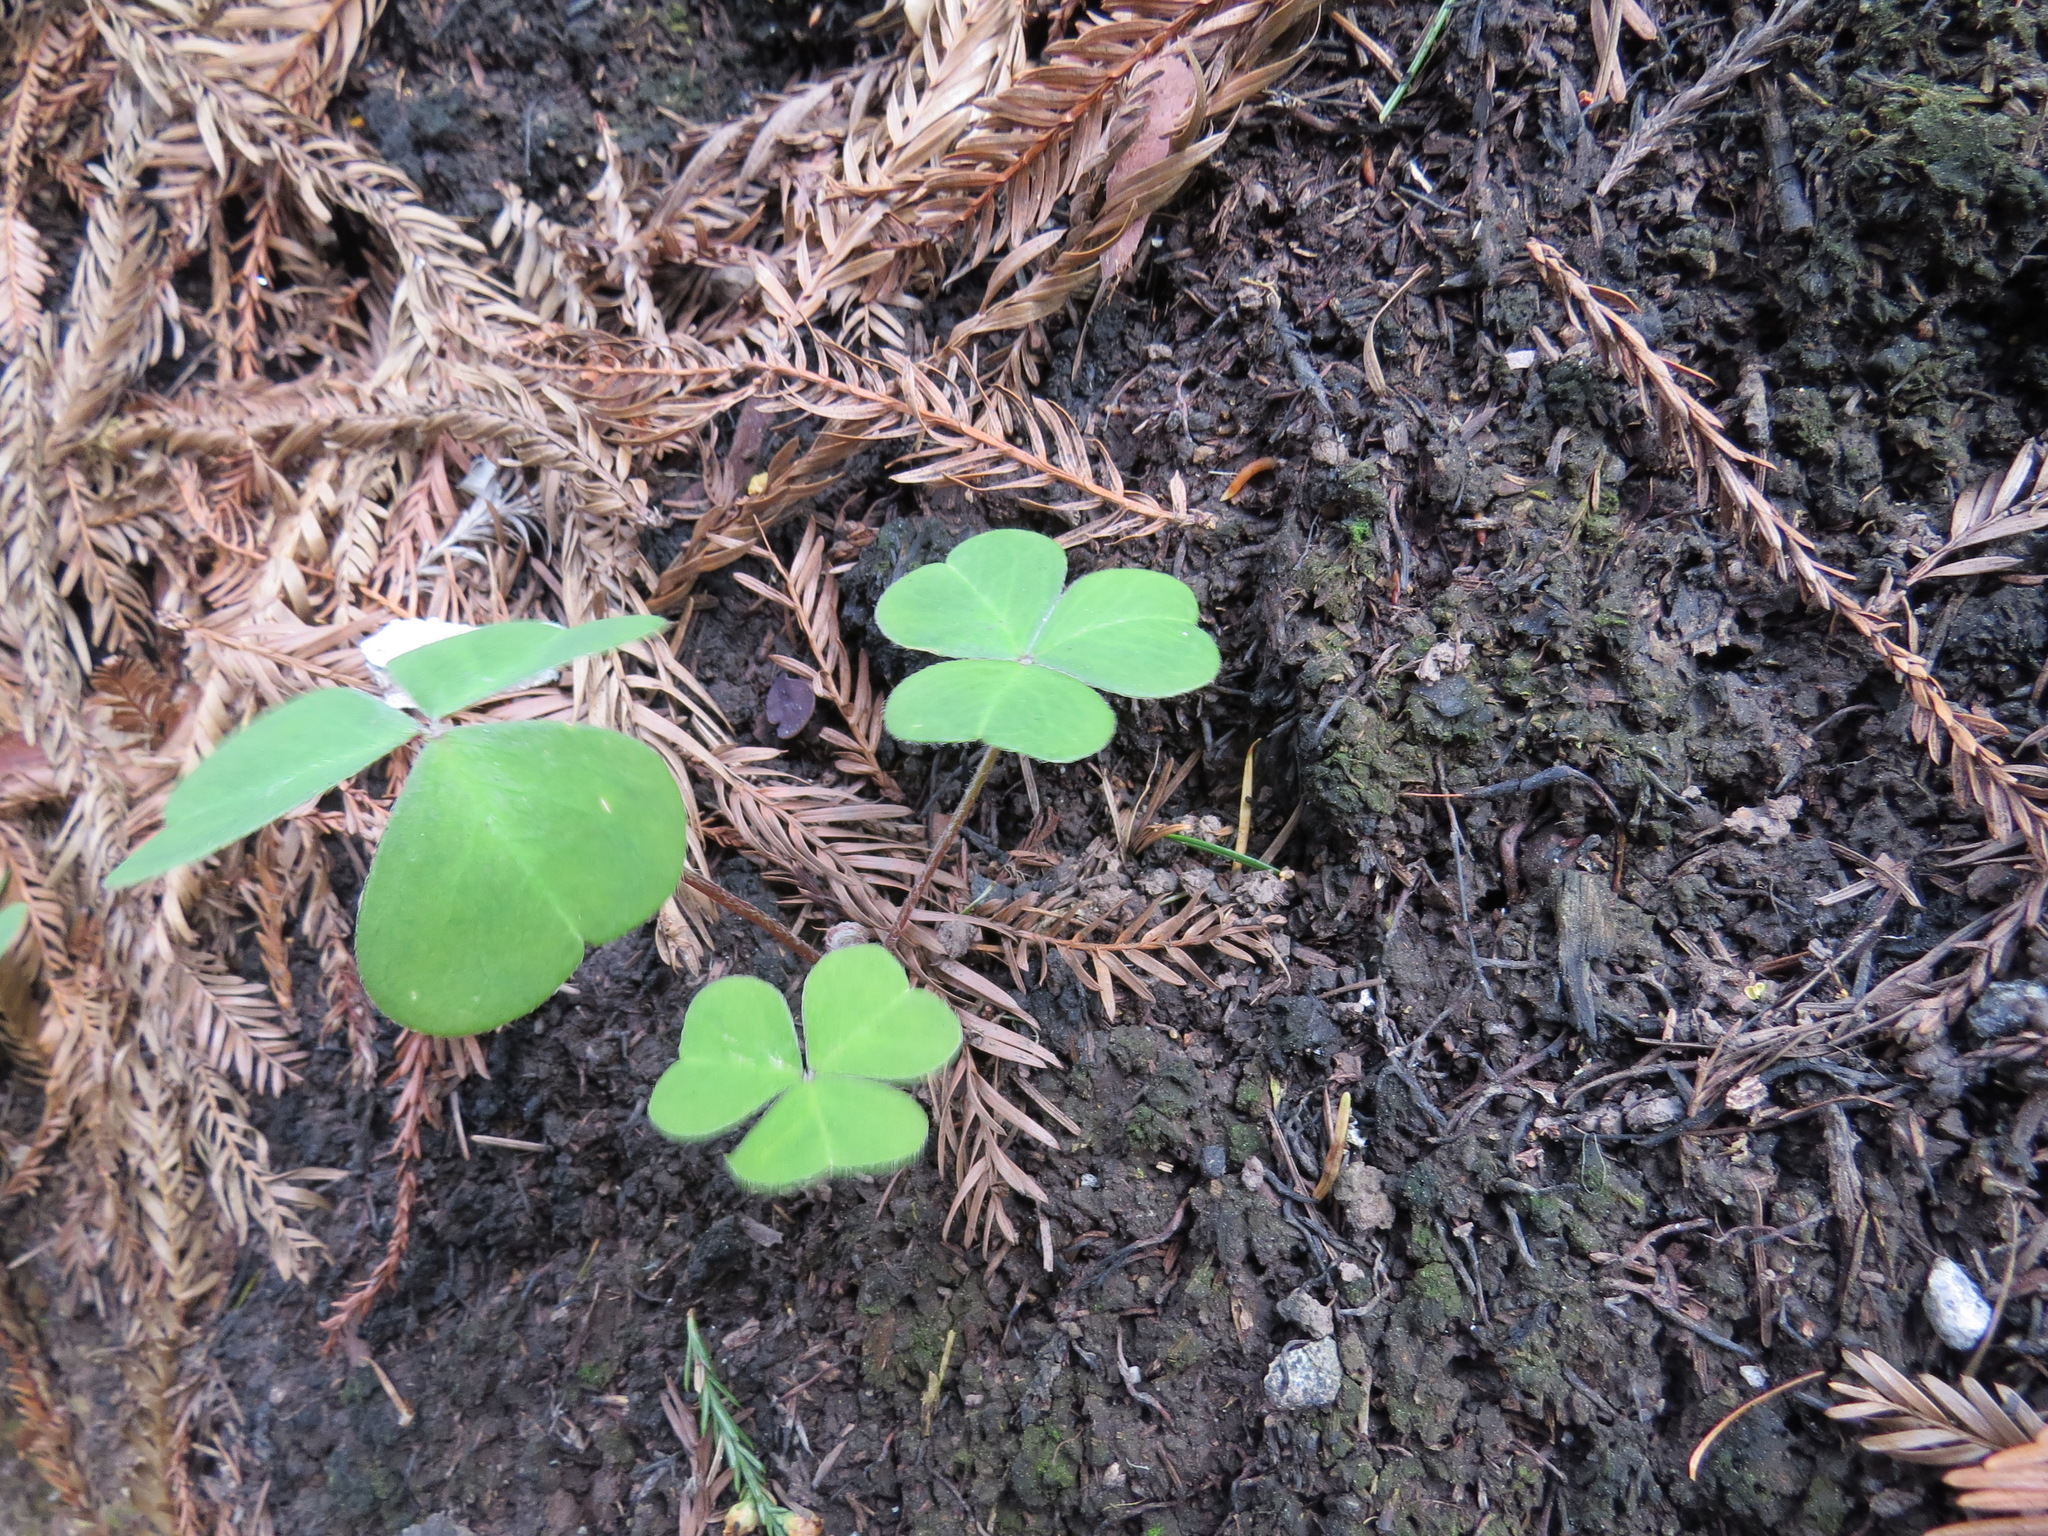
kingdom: Plantae
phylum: Tracheophyta
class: Magnoliopsida
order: Oxalidales
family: Oxalidaceae
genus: Oxalis
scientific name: Oxalis oregana
